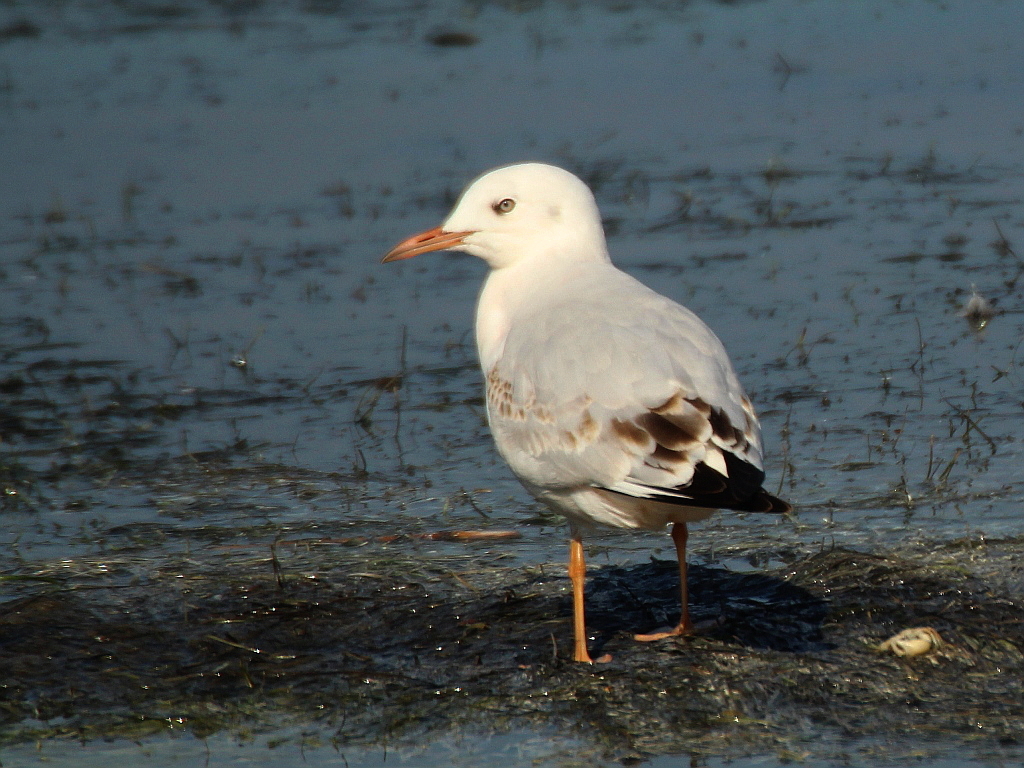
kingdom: Animalia
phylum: Chordata
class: Aves
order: Charadriiformes
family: Laridae
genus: Chroicocephalus
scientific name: Chroicocephalus genei
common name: Slender-billed gull
